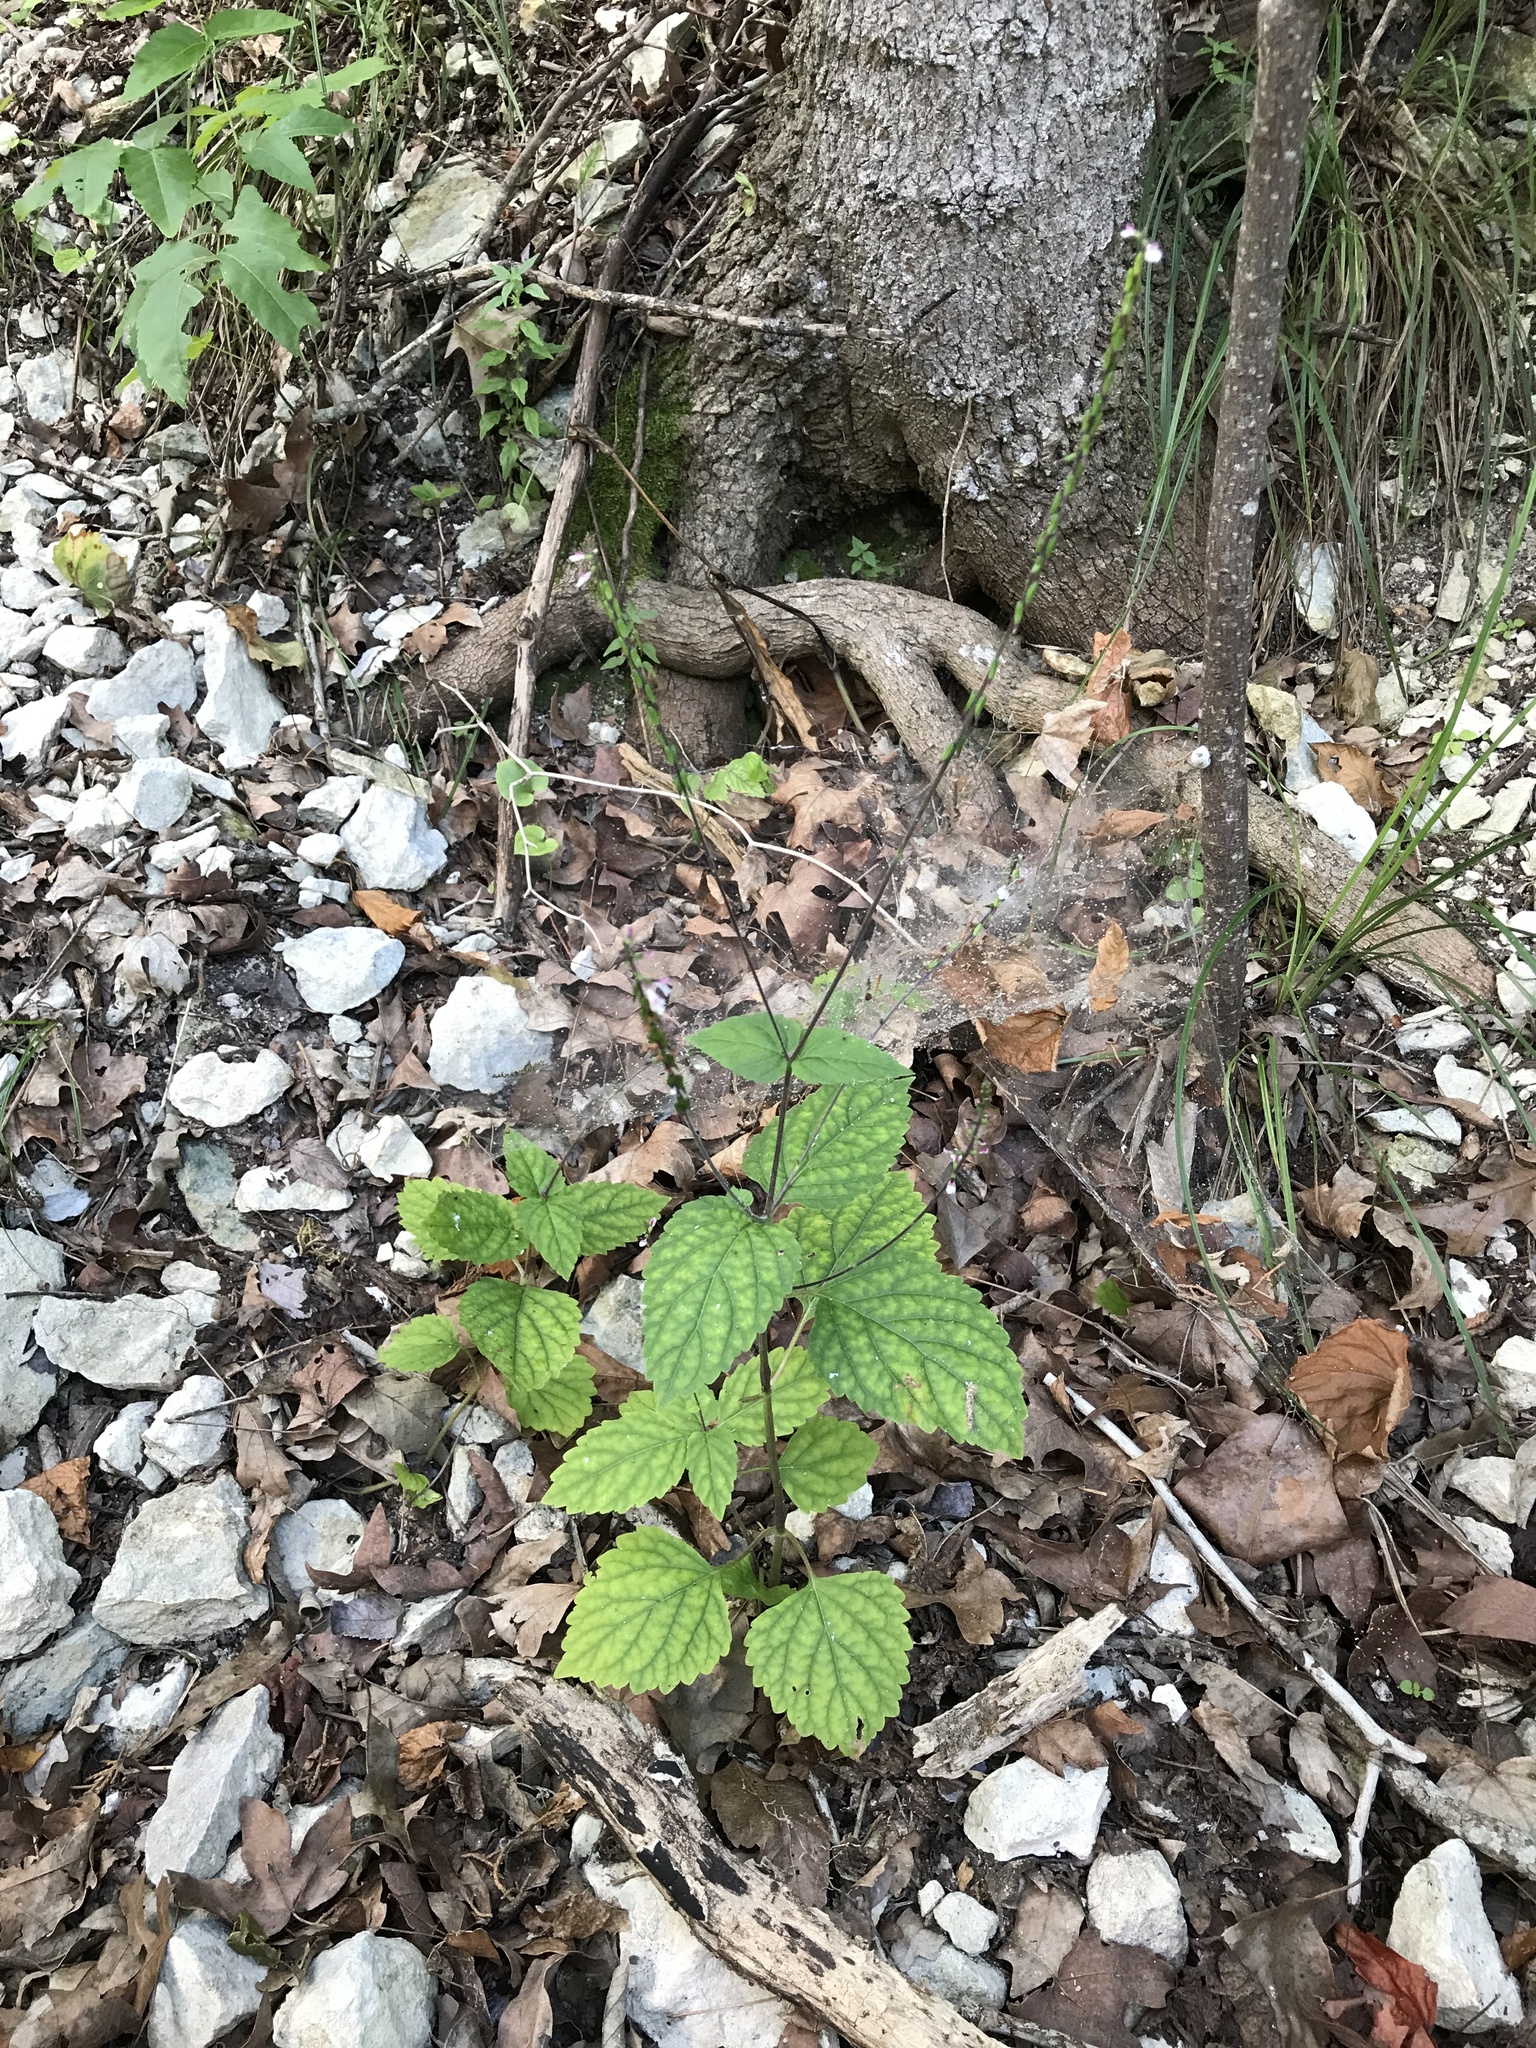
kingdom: Plantae
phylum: Tracheophyta
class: Magnoliopsida
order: Lamiales
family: Phrymaceae
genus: Phryma
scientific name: Phryma leptostachya
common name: American lopseed
